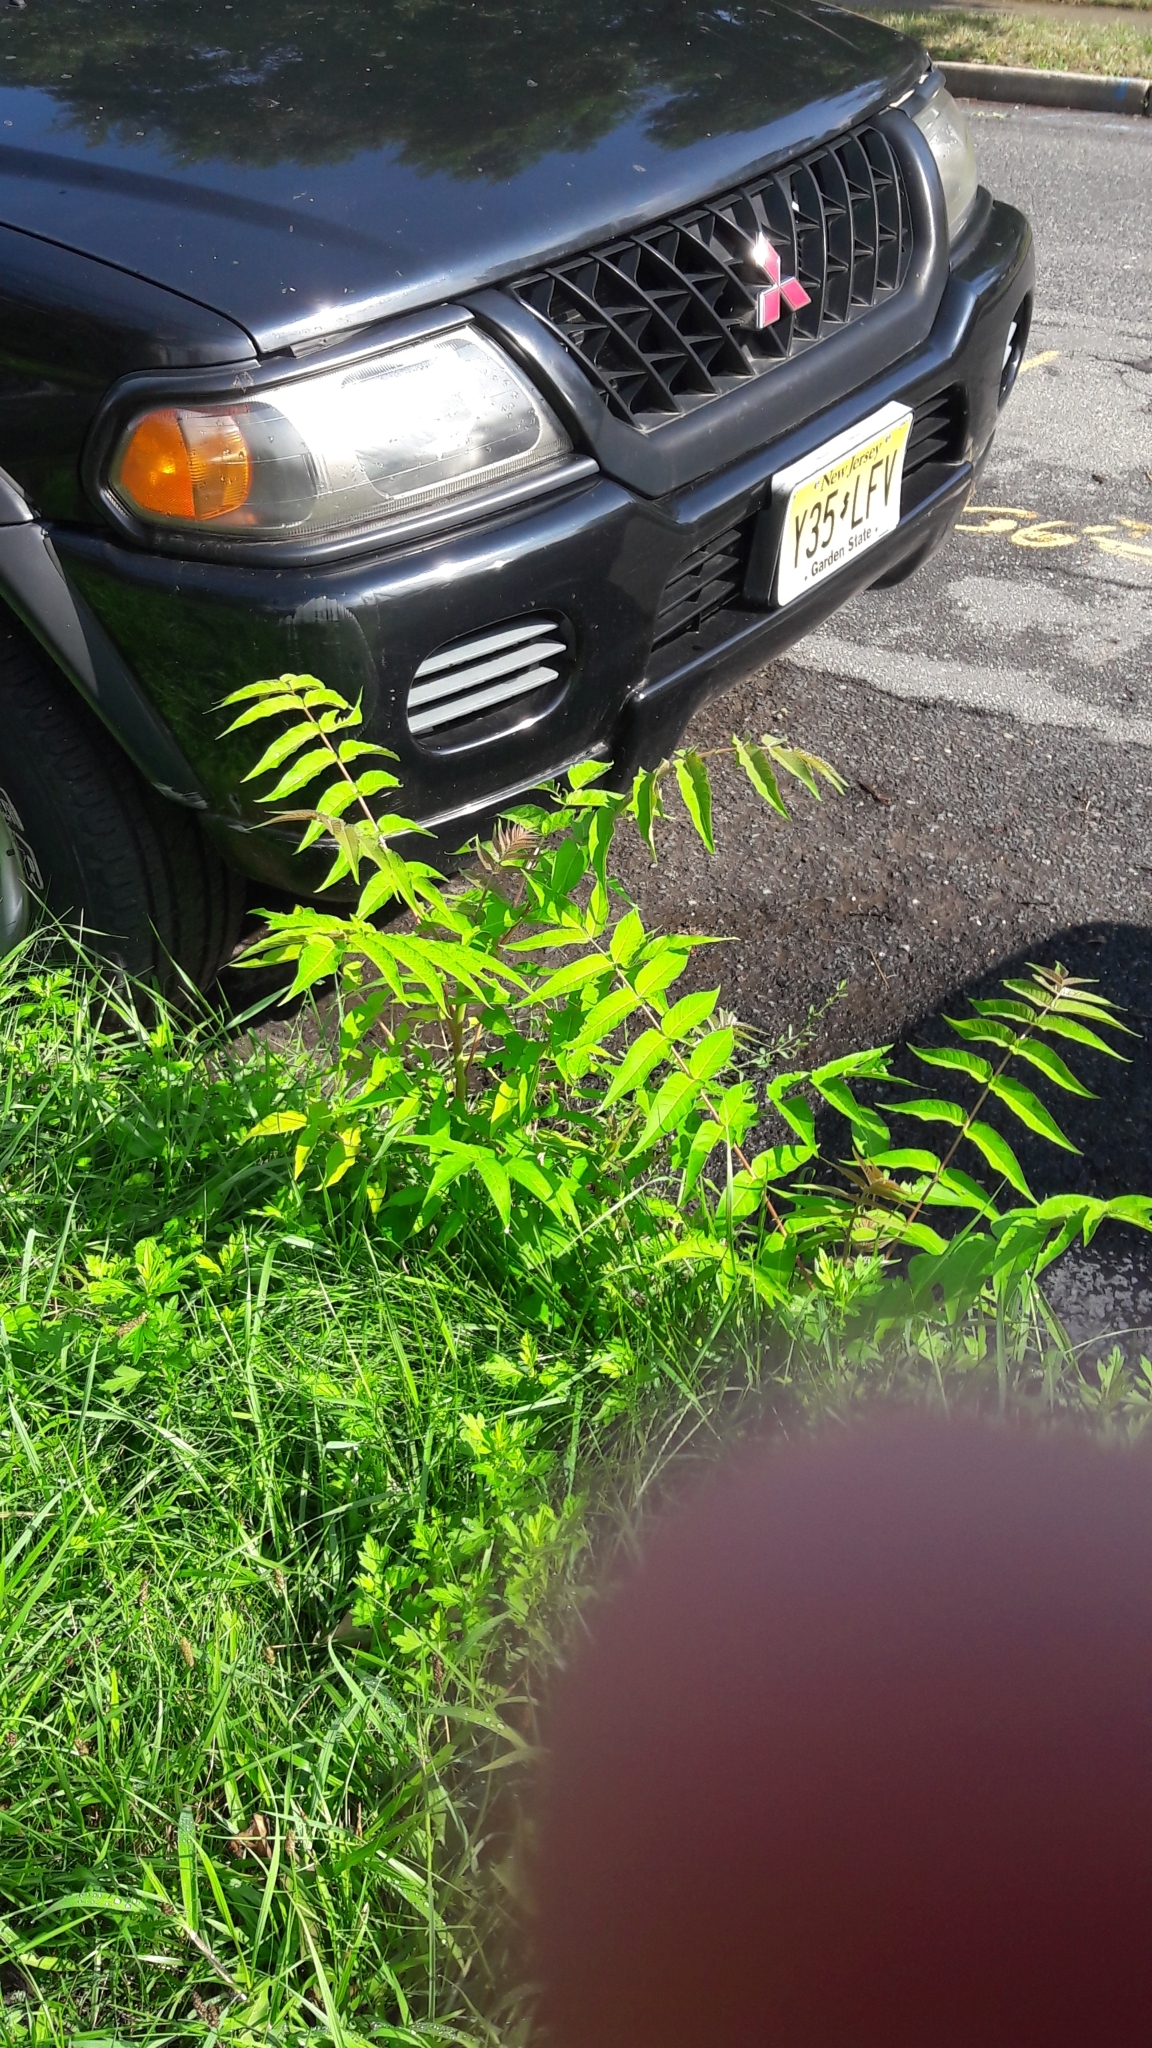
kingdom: Plantae
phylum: Tracheophyta
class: Magnoliopsida
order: Sapindales
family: Simaroubaceae
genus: Ailanthus
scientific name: Ailanthus altissima
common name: Tree-of-heaven
